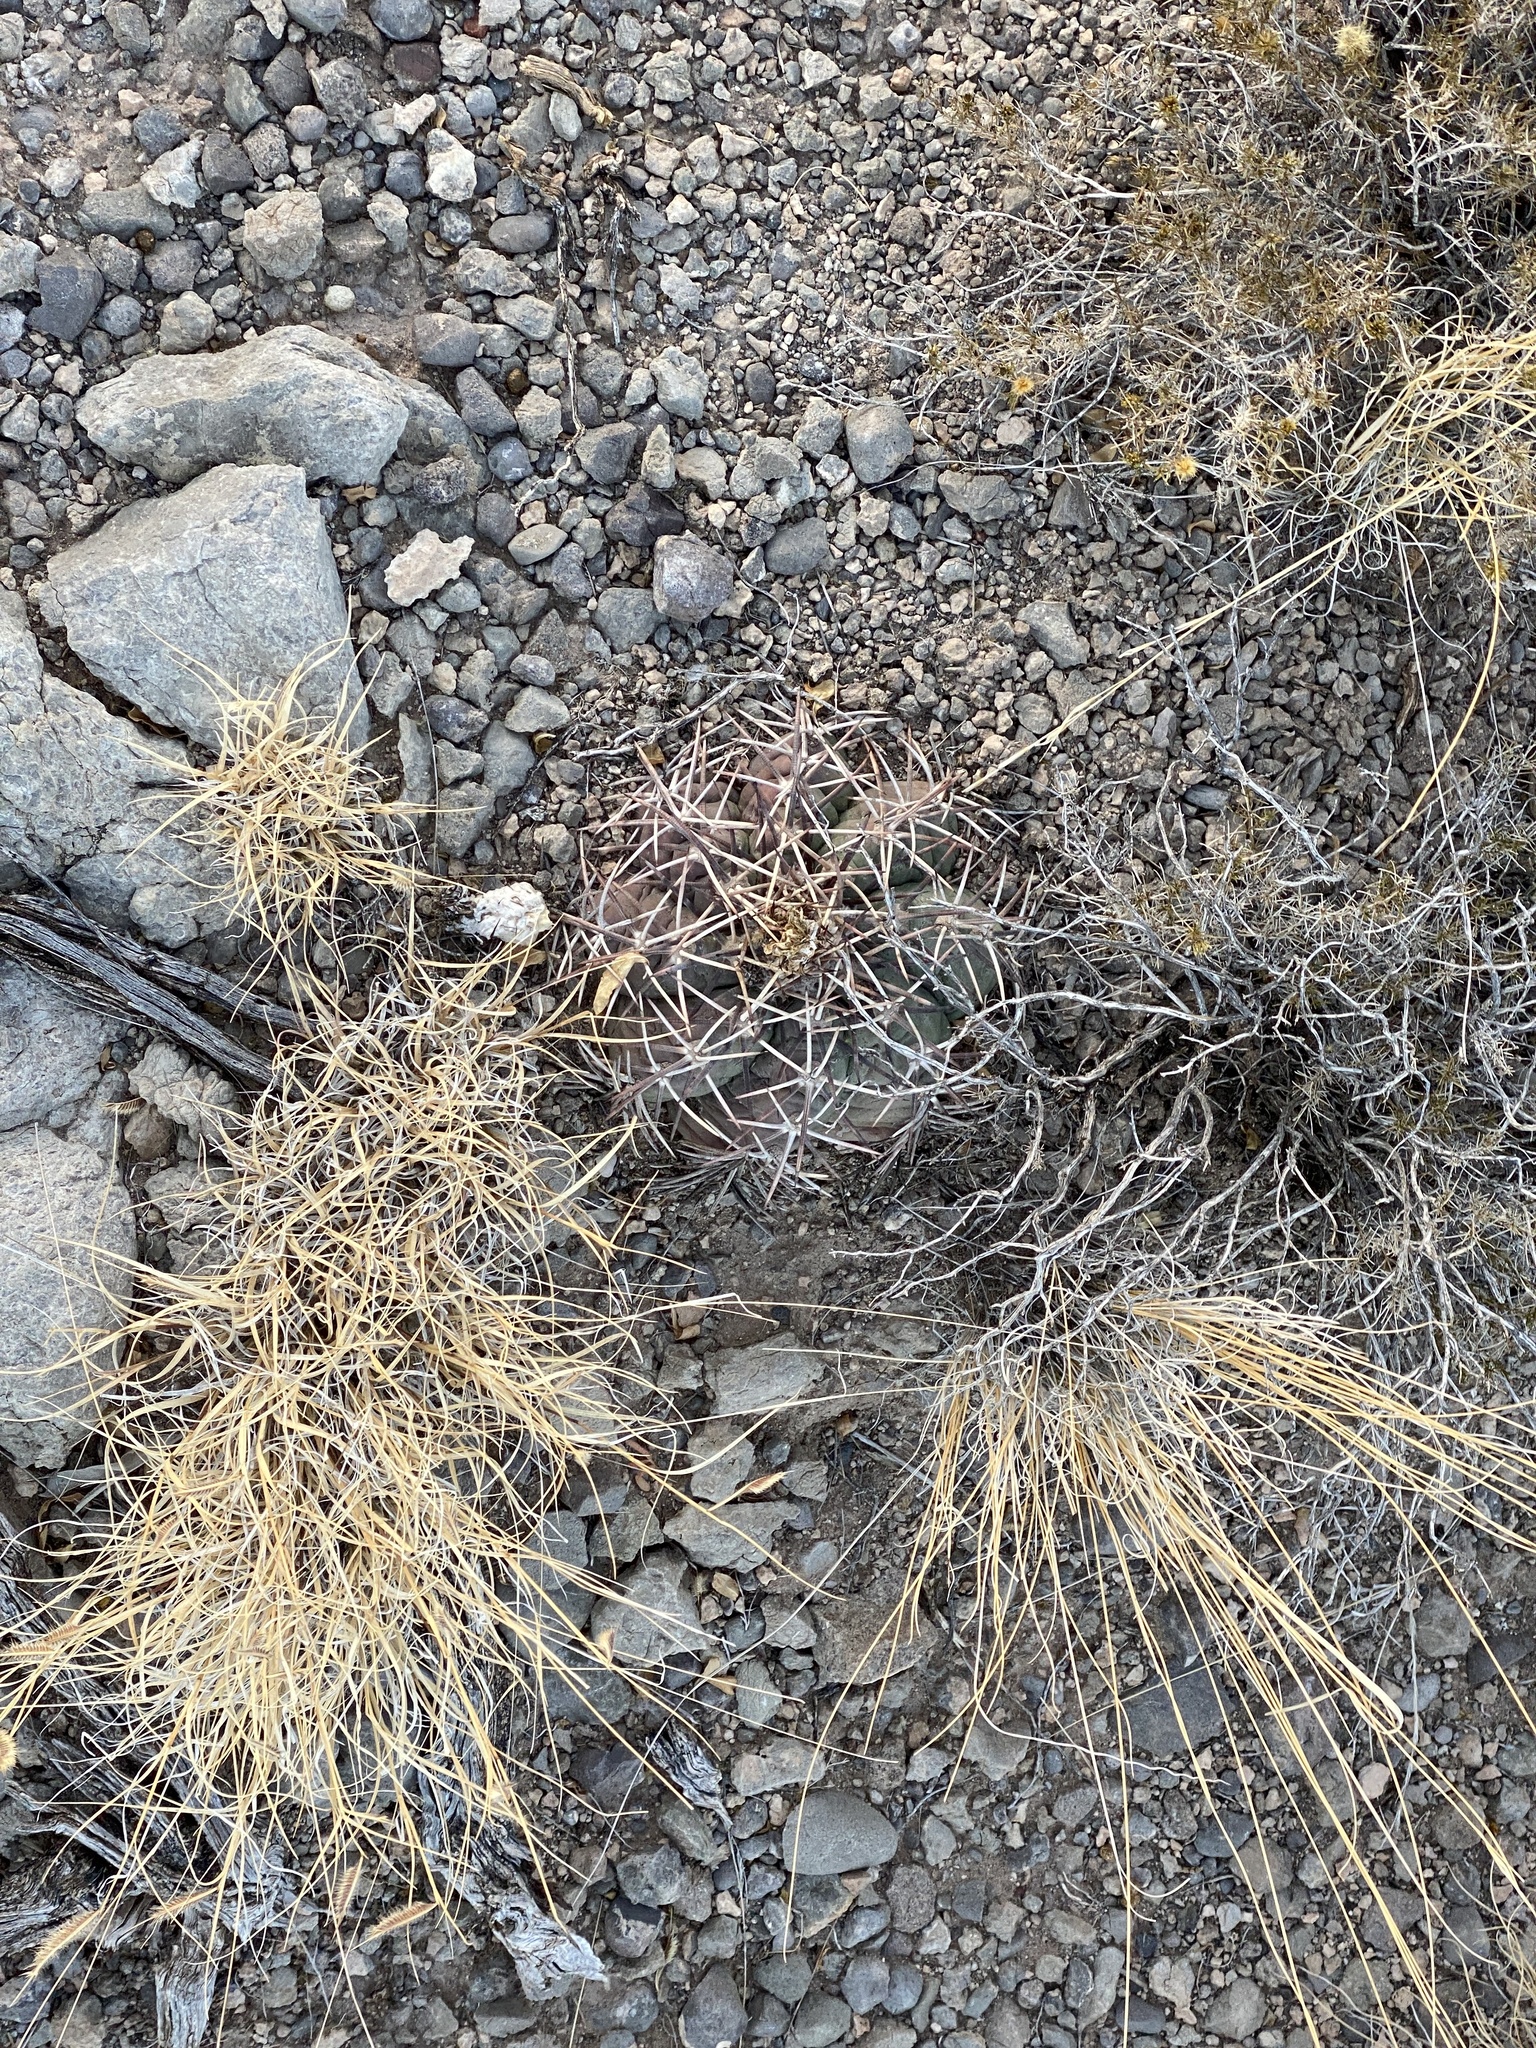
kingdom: Plantae
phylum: Tracheophyta
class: Magnoliopsida
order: Caryophyllales
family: Cactaceae
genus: Echinocactus
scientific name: Echinocactus horizonthalonius
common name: Devilshead
